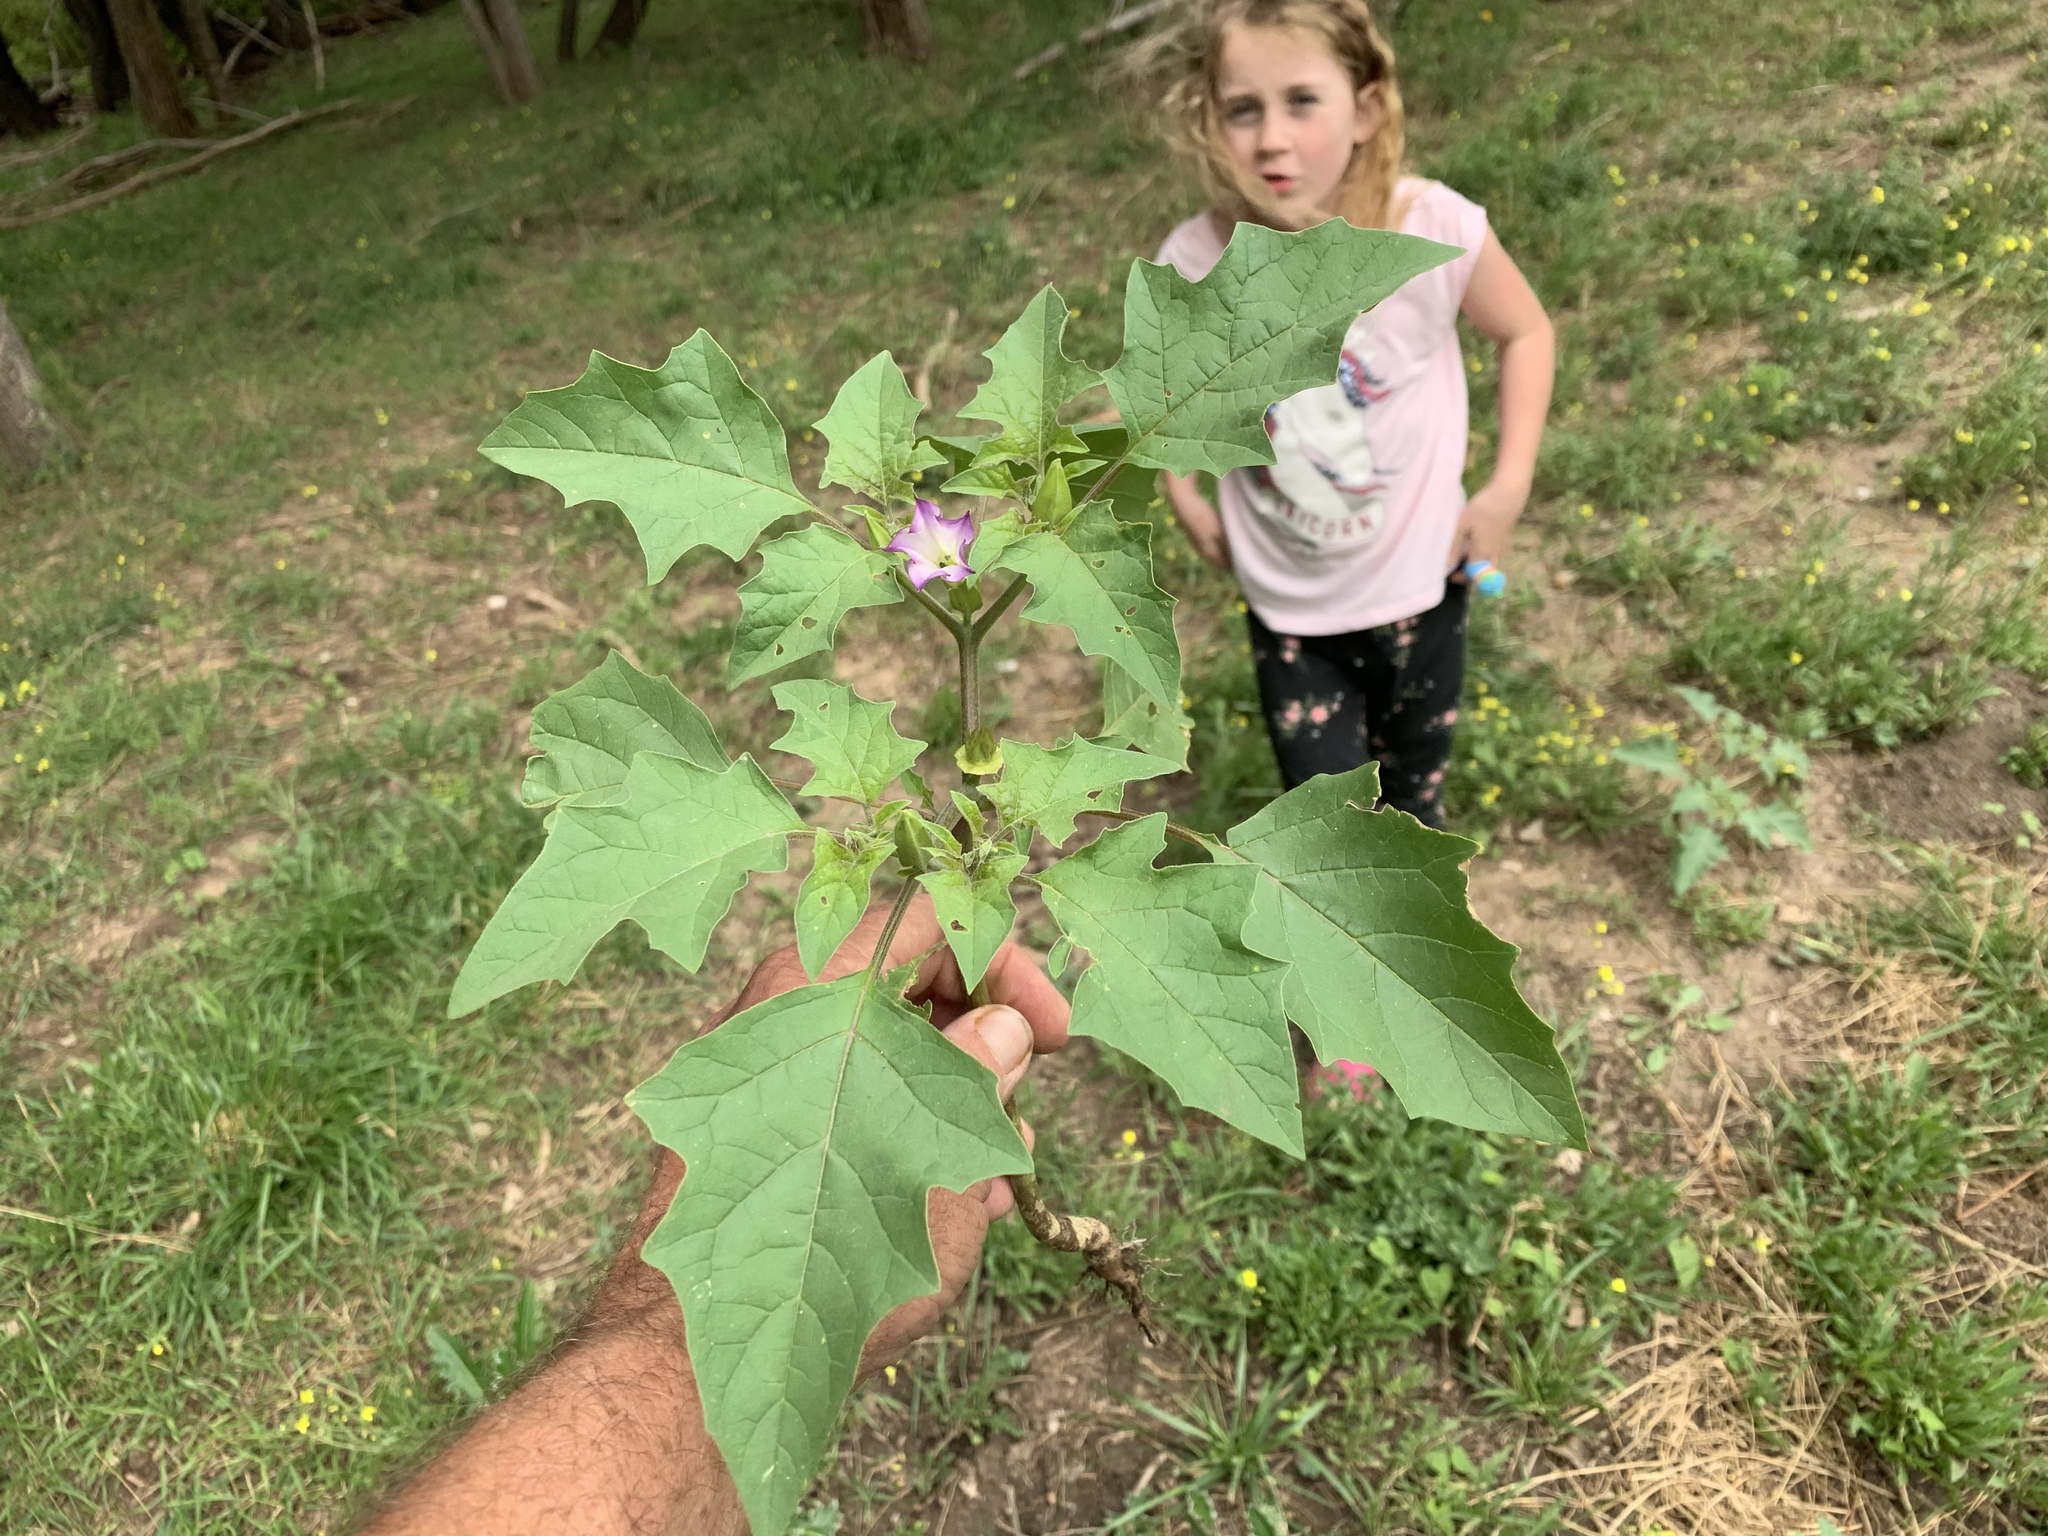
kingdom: Plantae
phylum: Tracheophyta
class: Magnoliopsida
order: Solanales
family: Solanaceae
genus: Datura
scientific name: Datura quercifolia
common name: Oak-leaf datura
